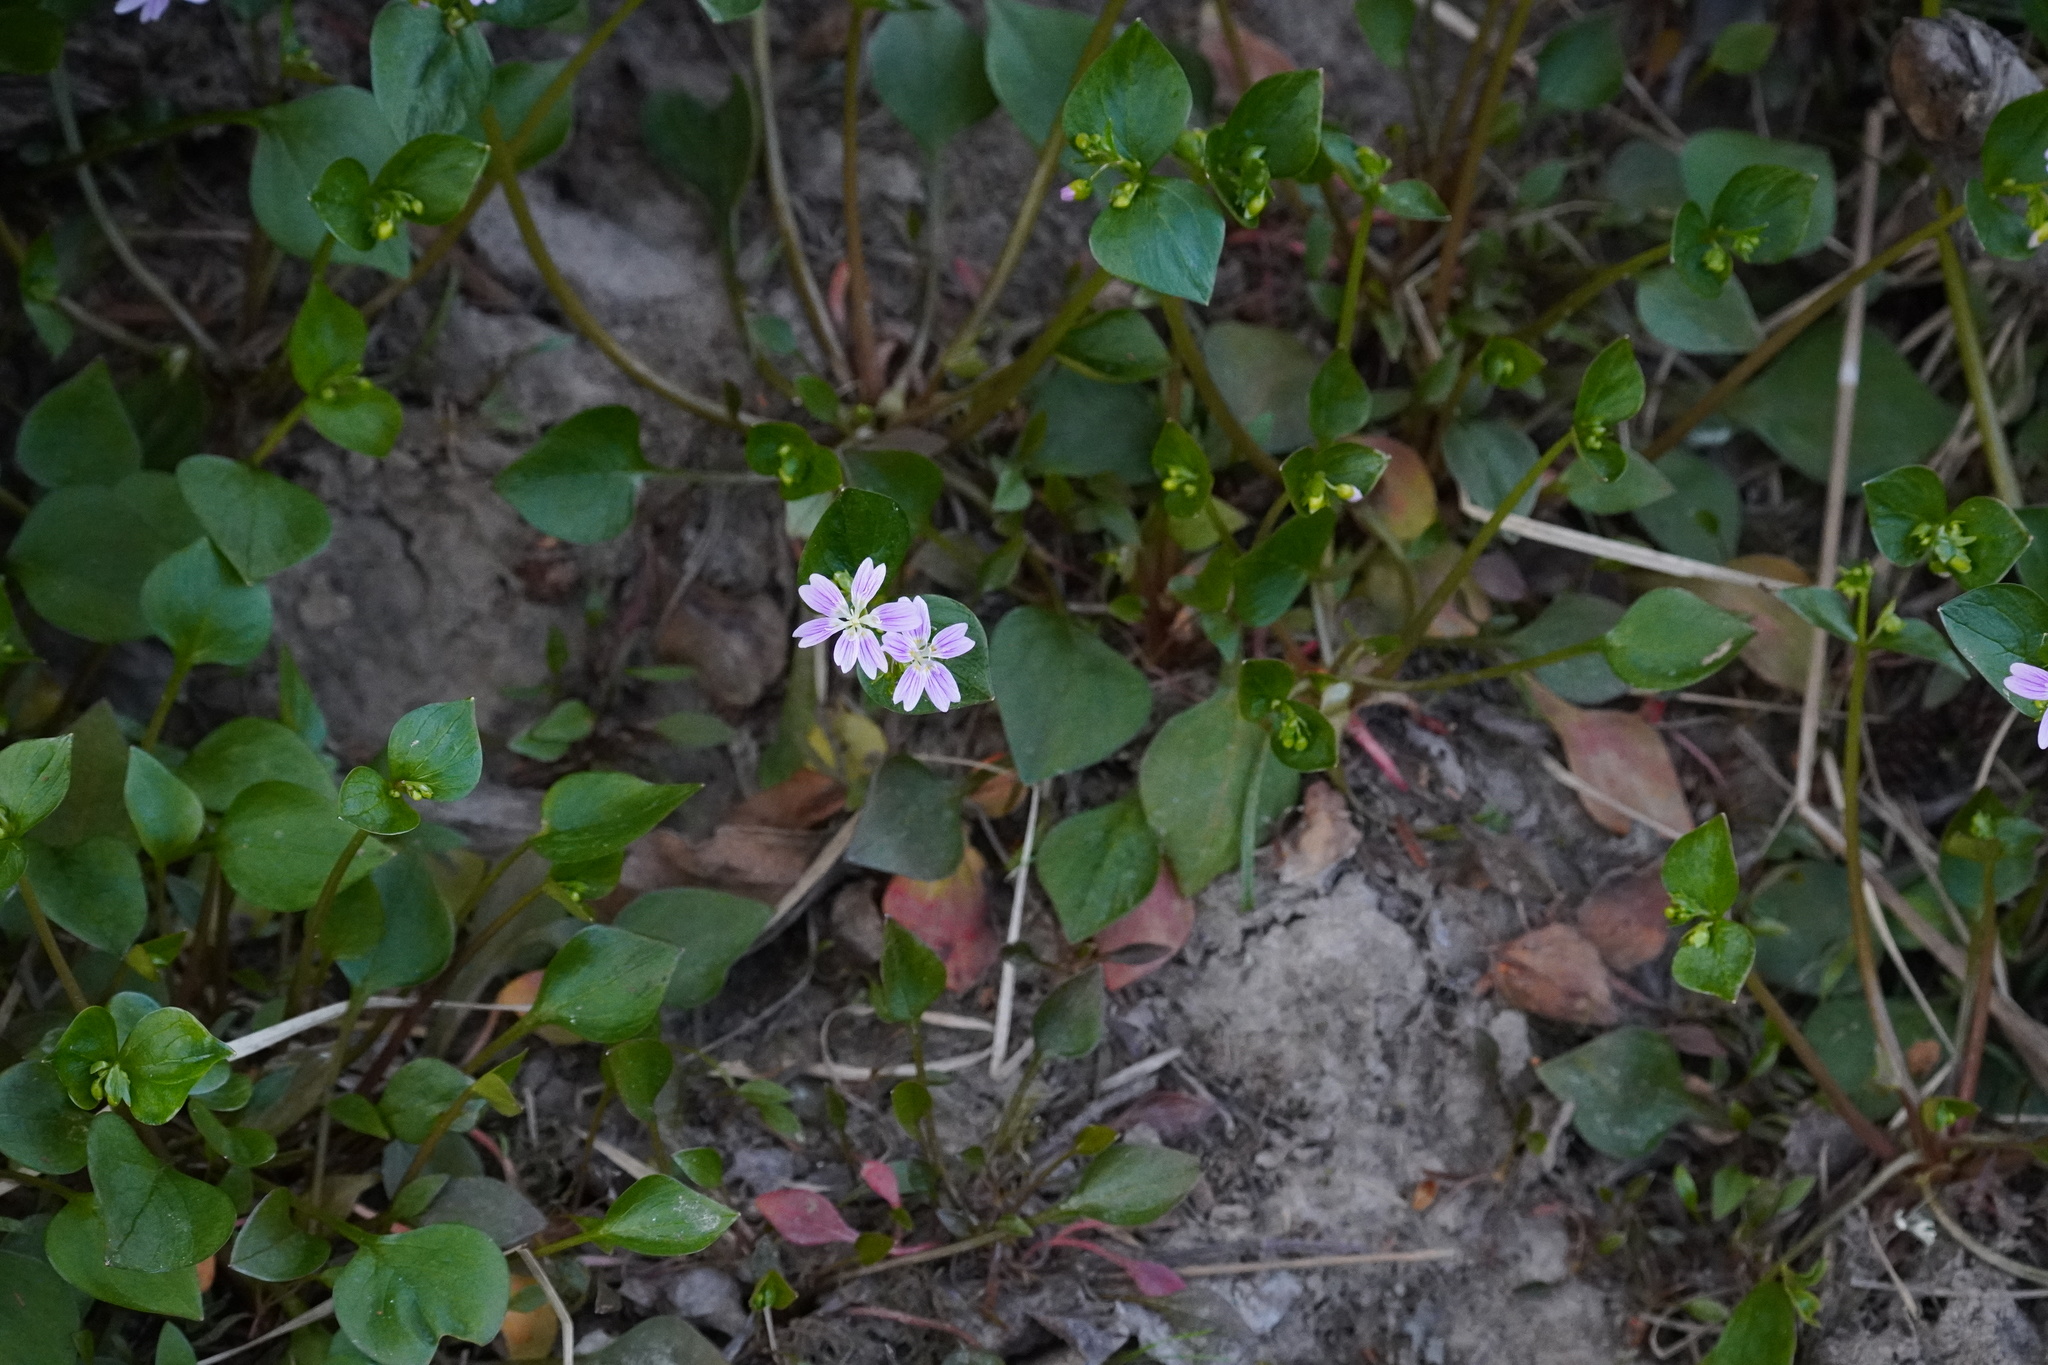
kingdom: Plantae
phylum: Tracheophyta
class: Magnoliopsida
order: Caryophyllales
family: Montiaceae
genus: Claytonia
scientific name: Claytonia sibirica
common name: Pink purslane
